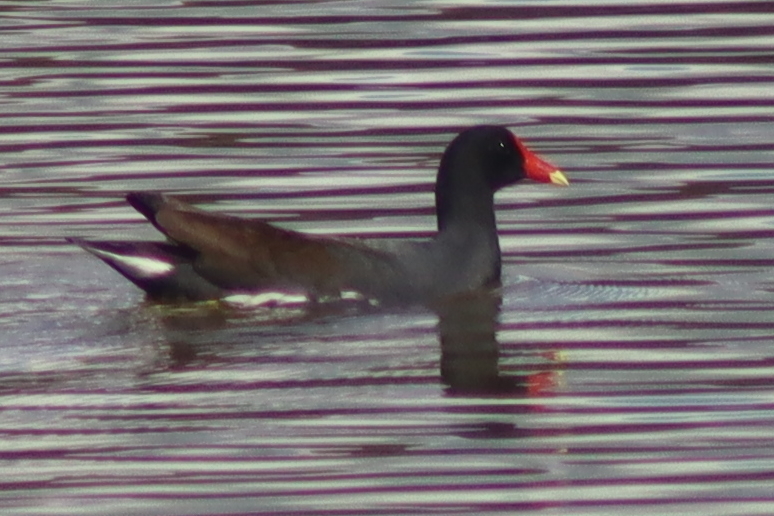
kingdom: Animalia
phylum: Chordata
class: Aves
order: Gruiformes
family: Rallidae
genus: Gallinula
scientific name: Gallinula chloropus
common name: Common moorhen
